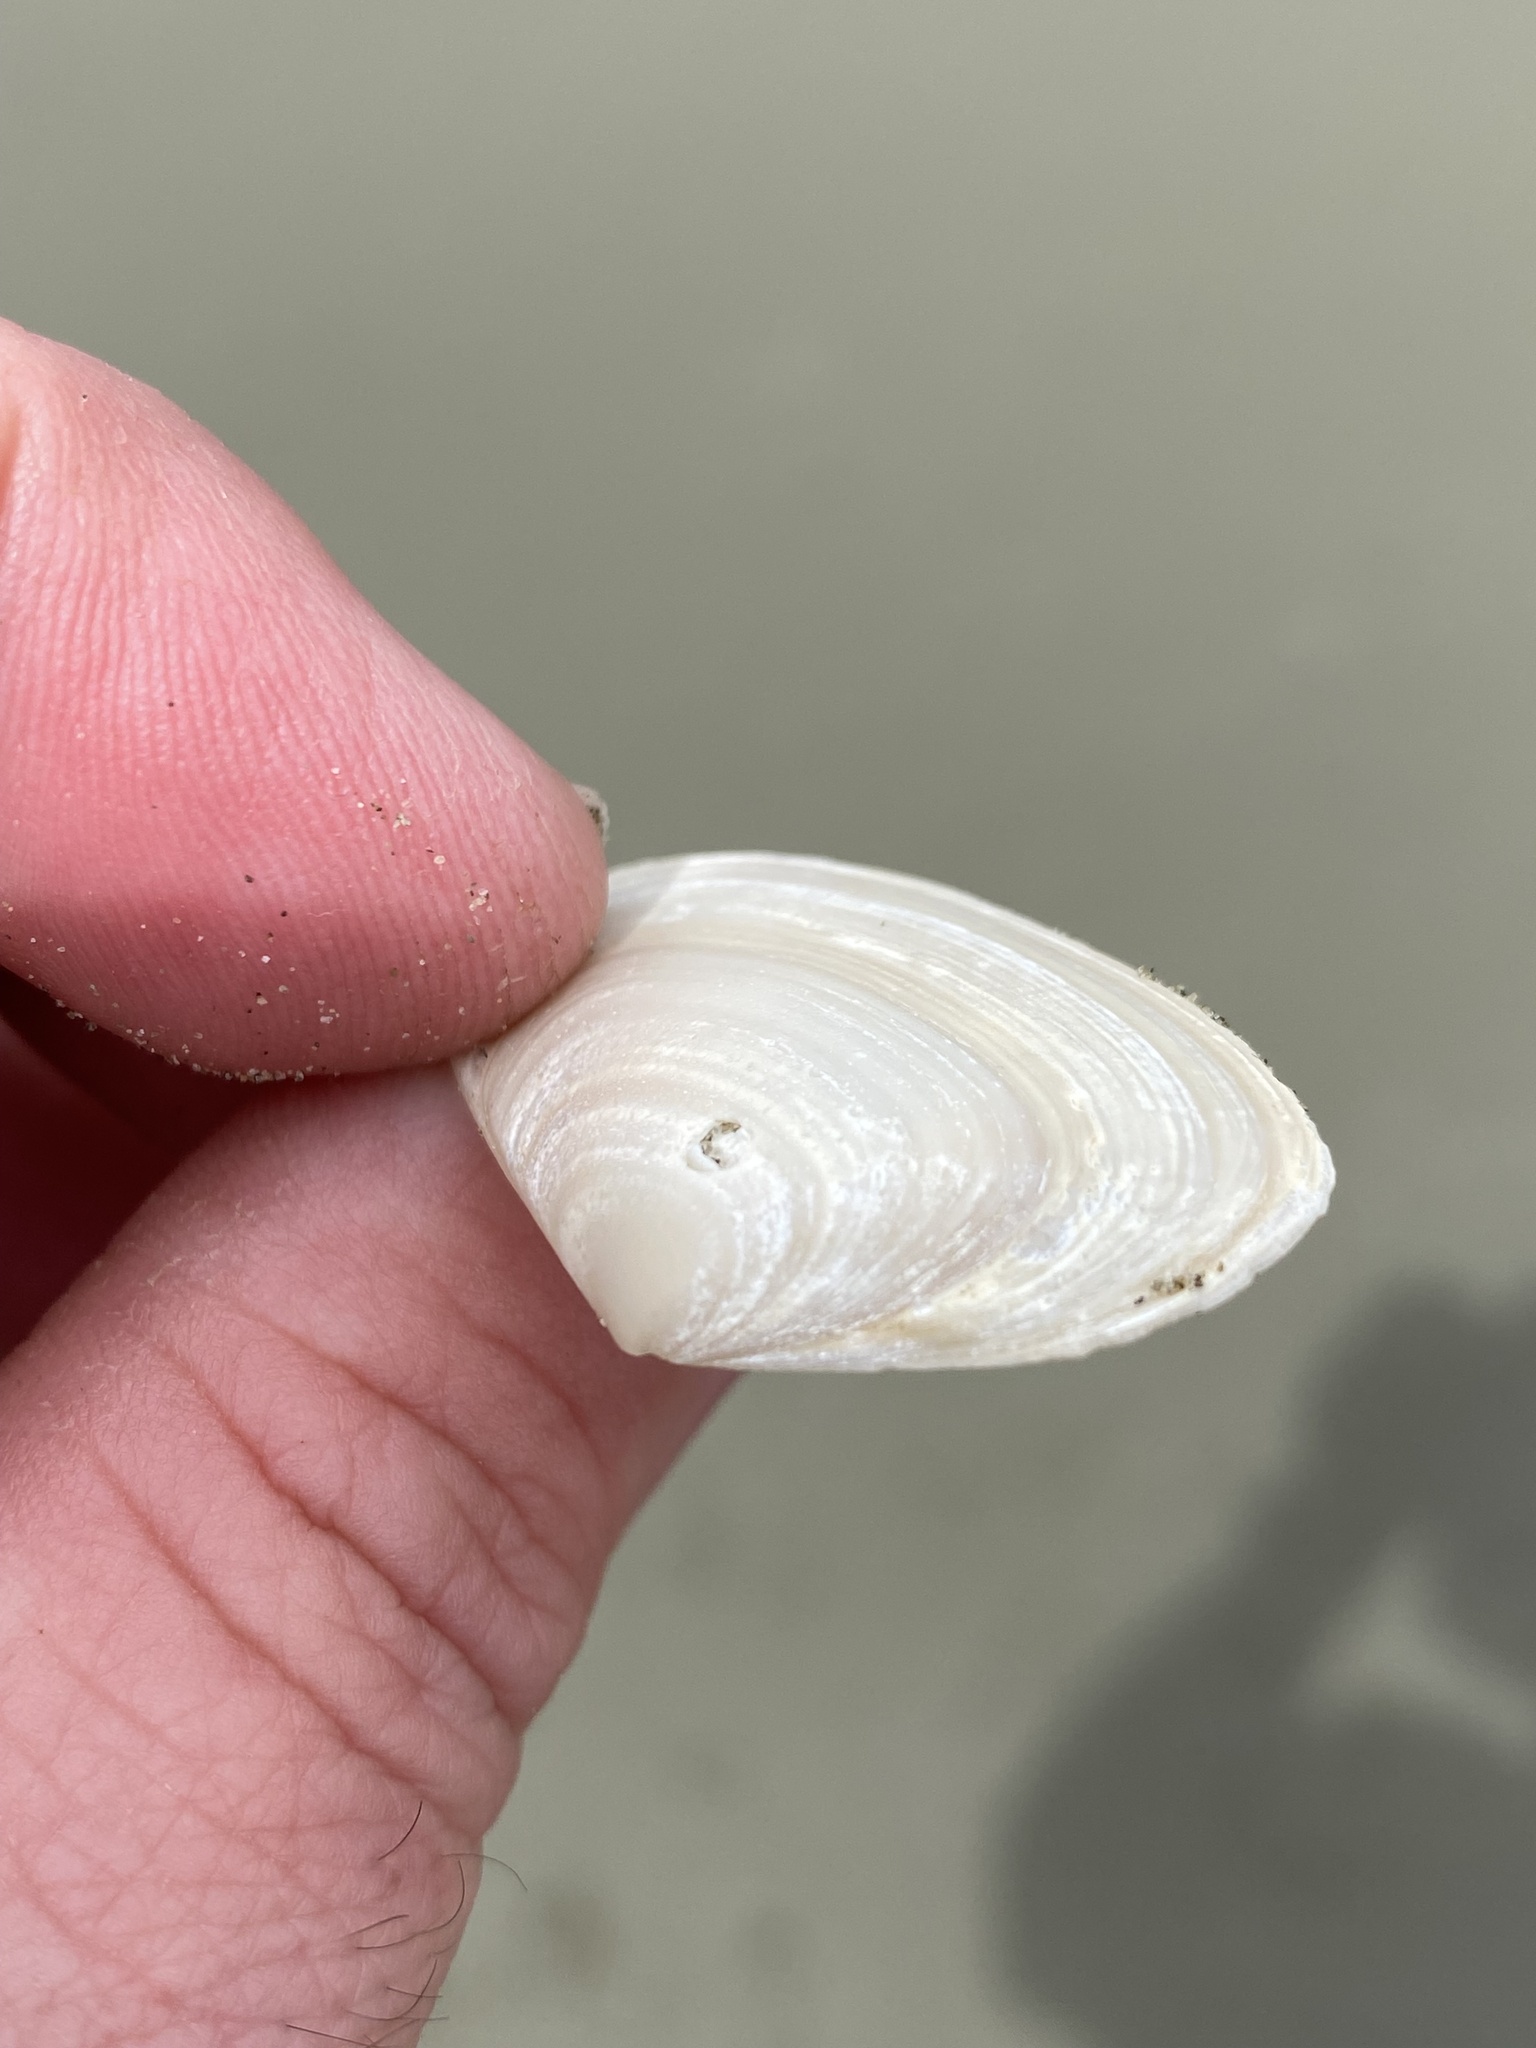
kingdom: Animalia
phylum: Mollusca
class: Bivalvia
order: Venerida
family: Mesodesmatidae
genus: Paphies
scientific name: Paphies donacina
